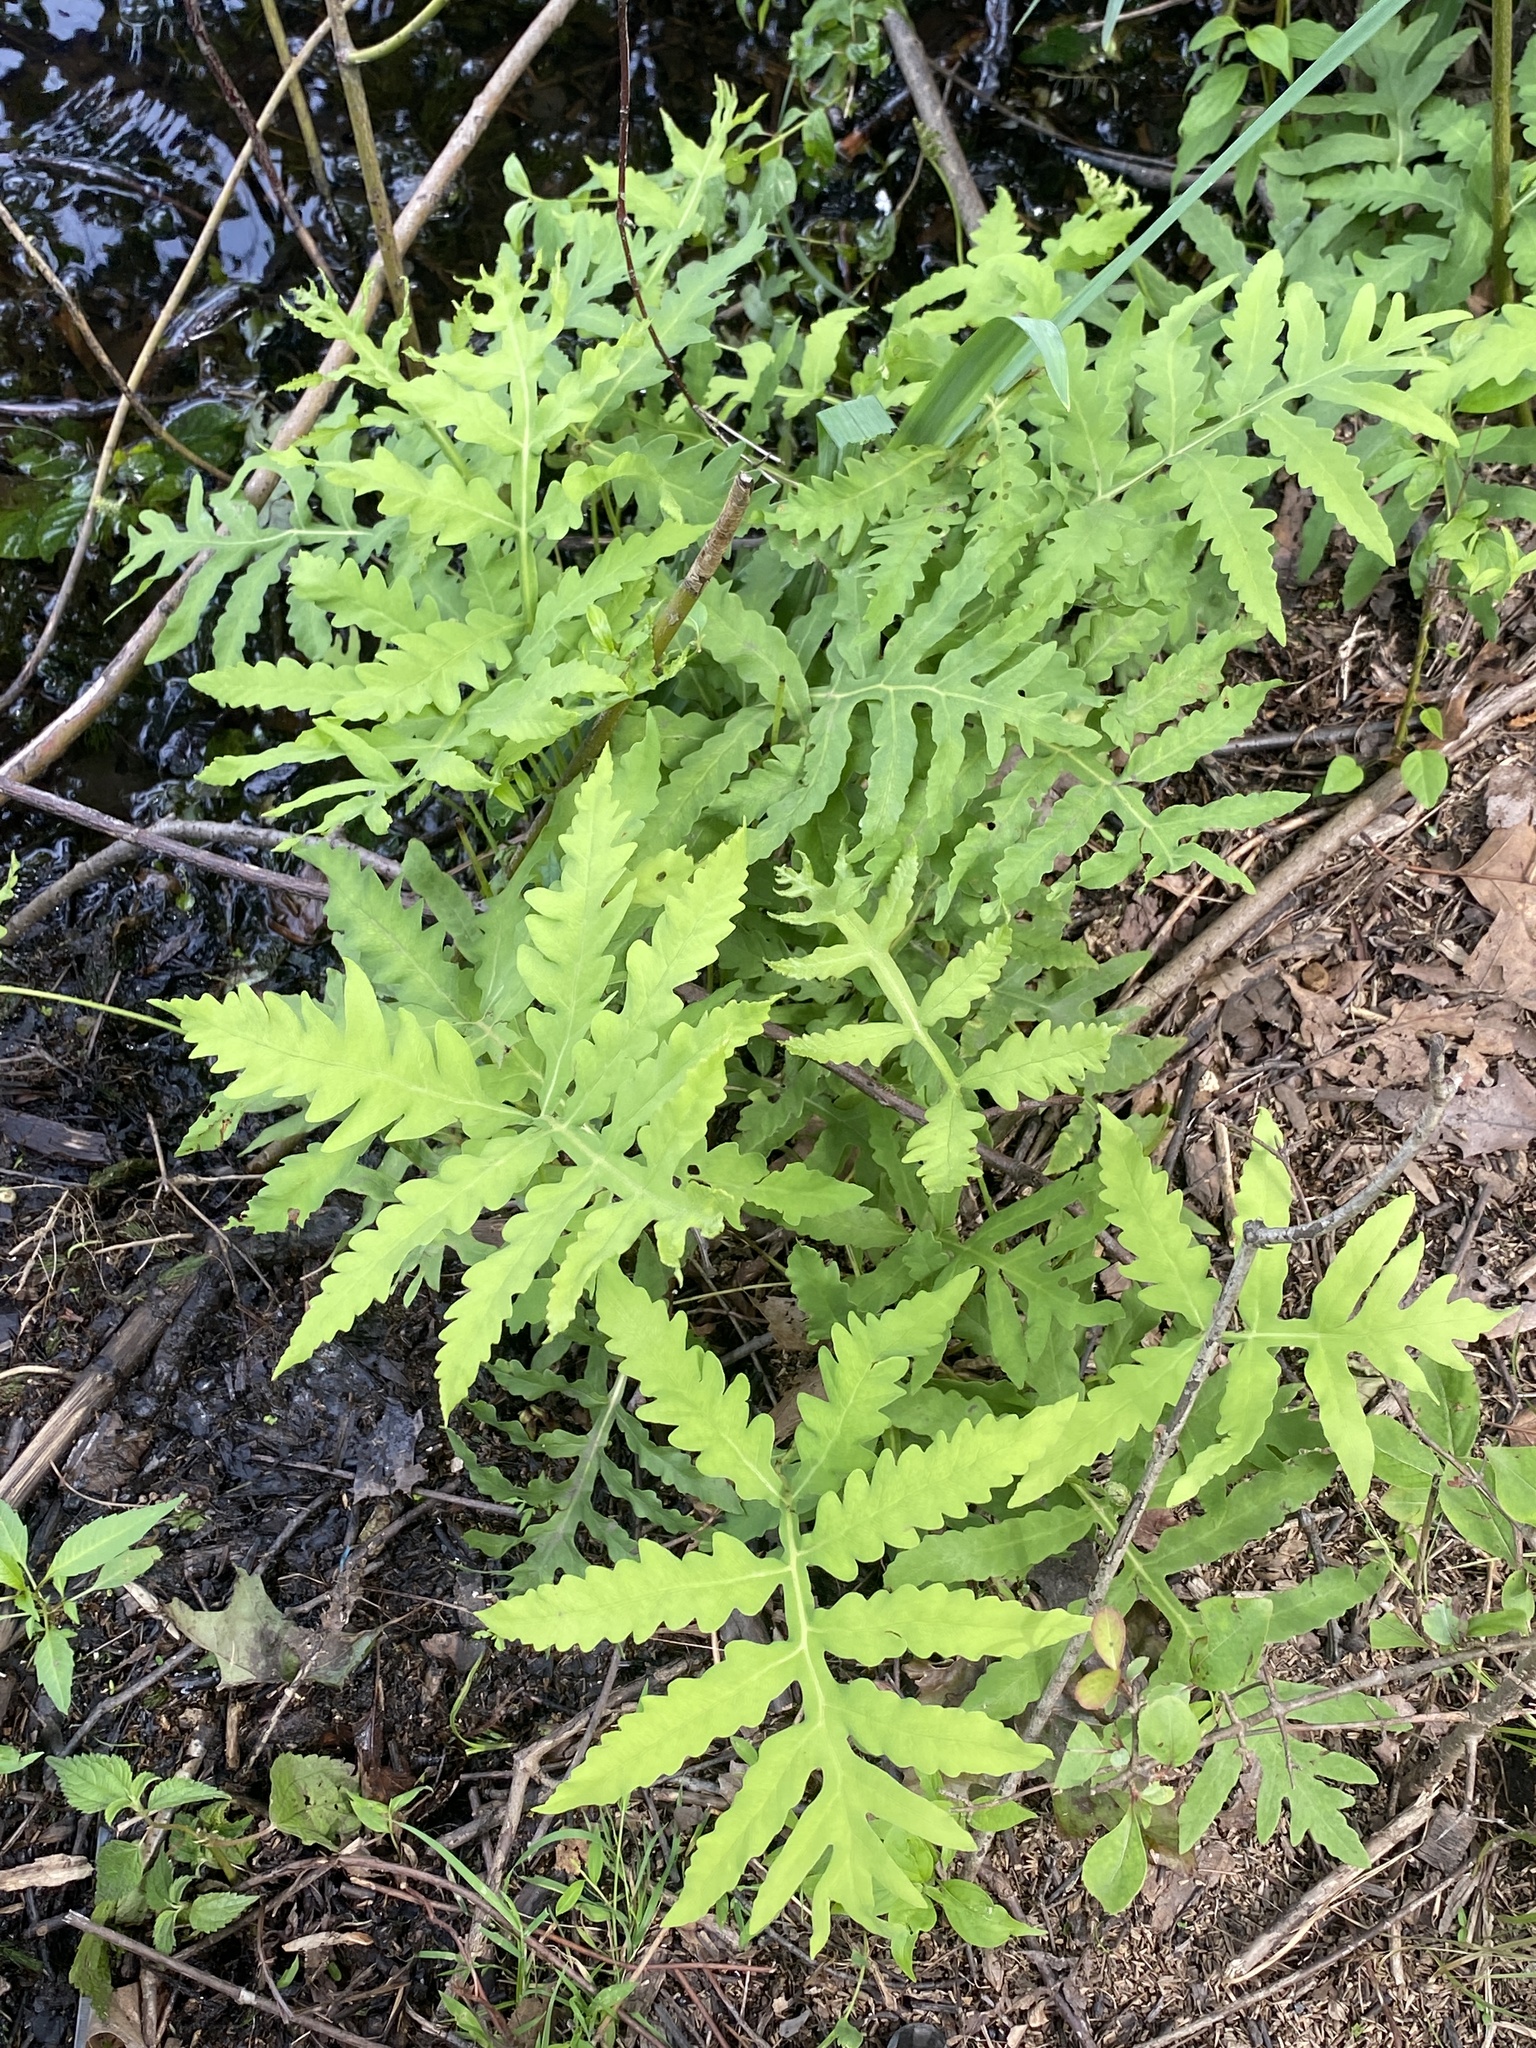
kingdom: Plantae
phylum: Tracheophyta
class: Polypodiopsida
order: Polypodiales
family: Onocleaceae
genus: Onoclea
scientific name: Onoclea sensibilis
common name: Sensitive fern
